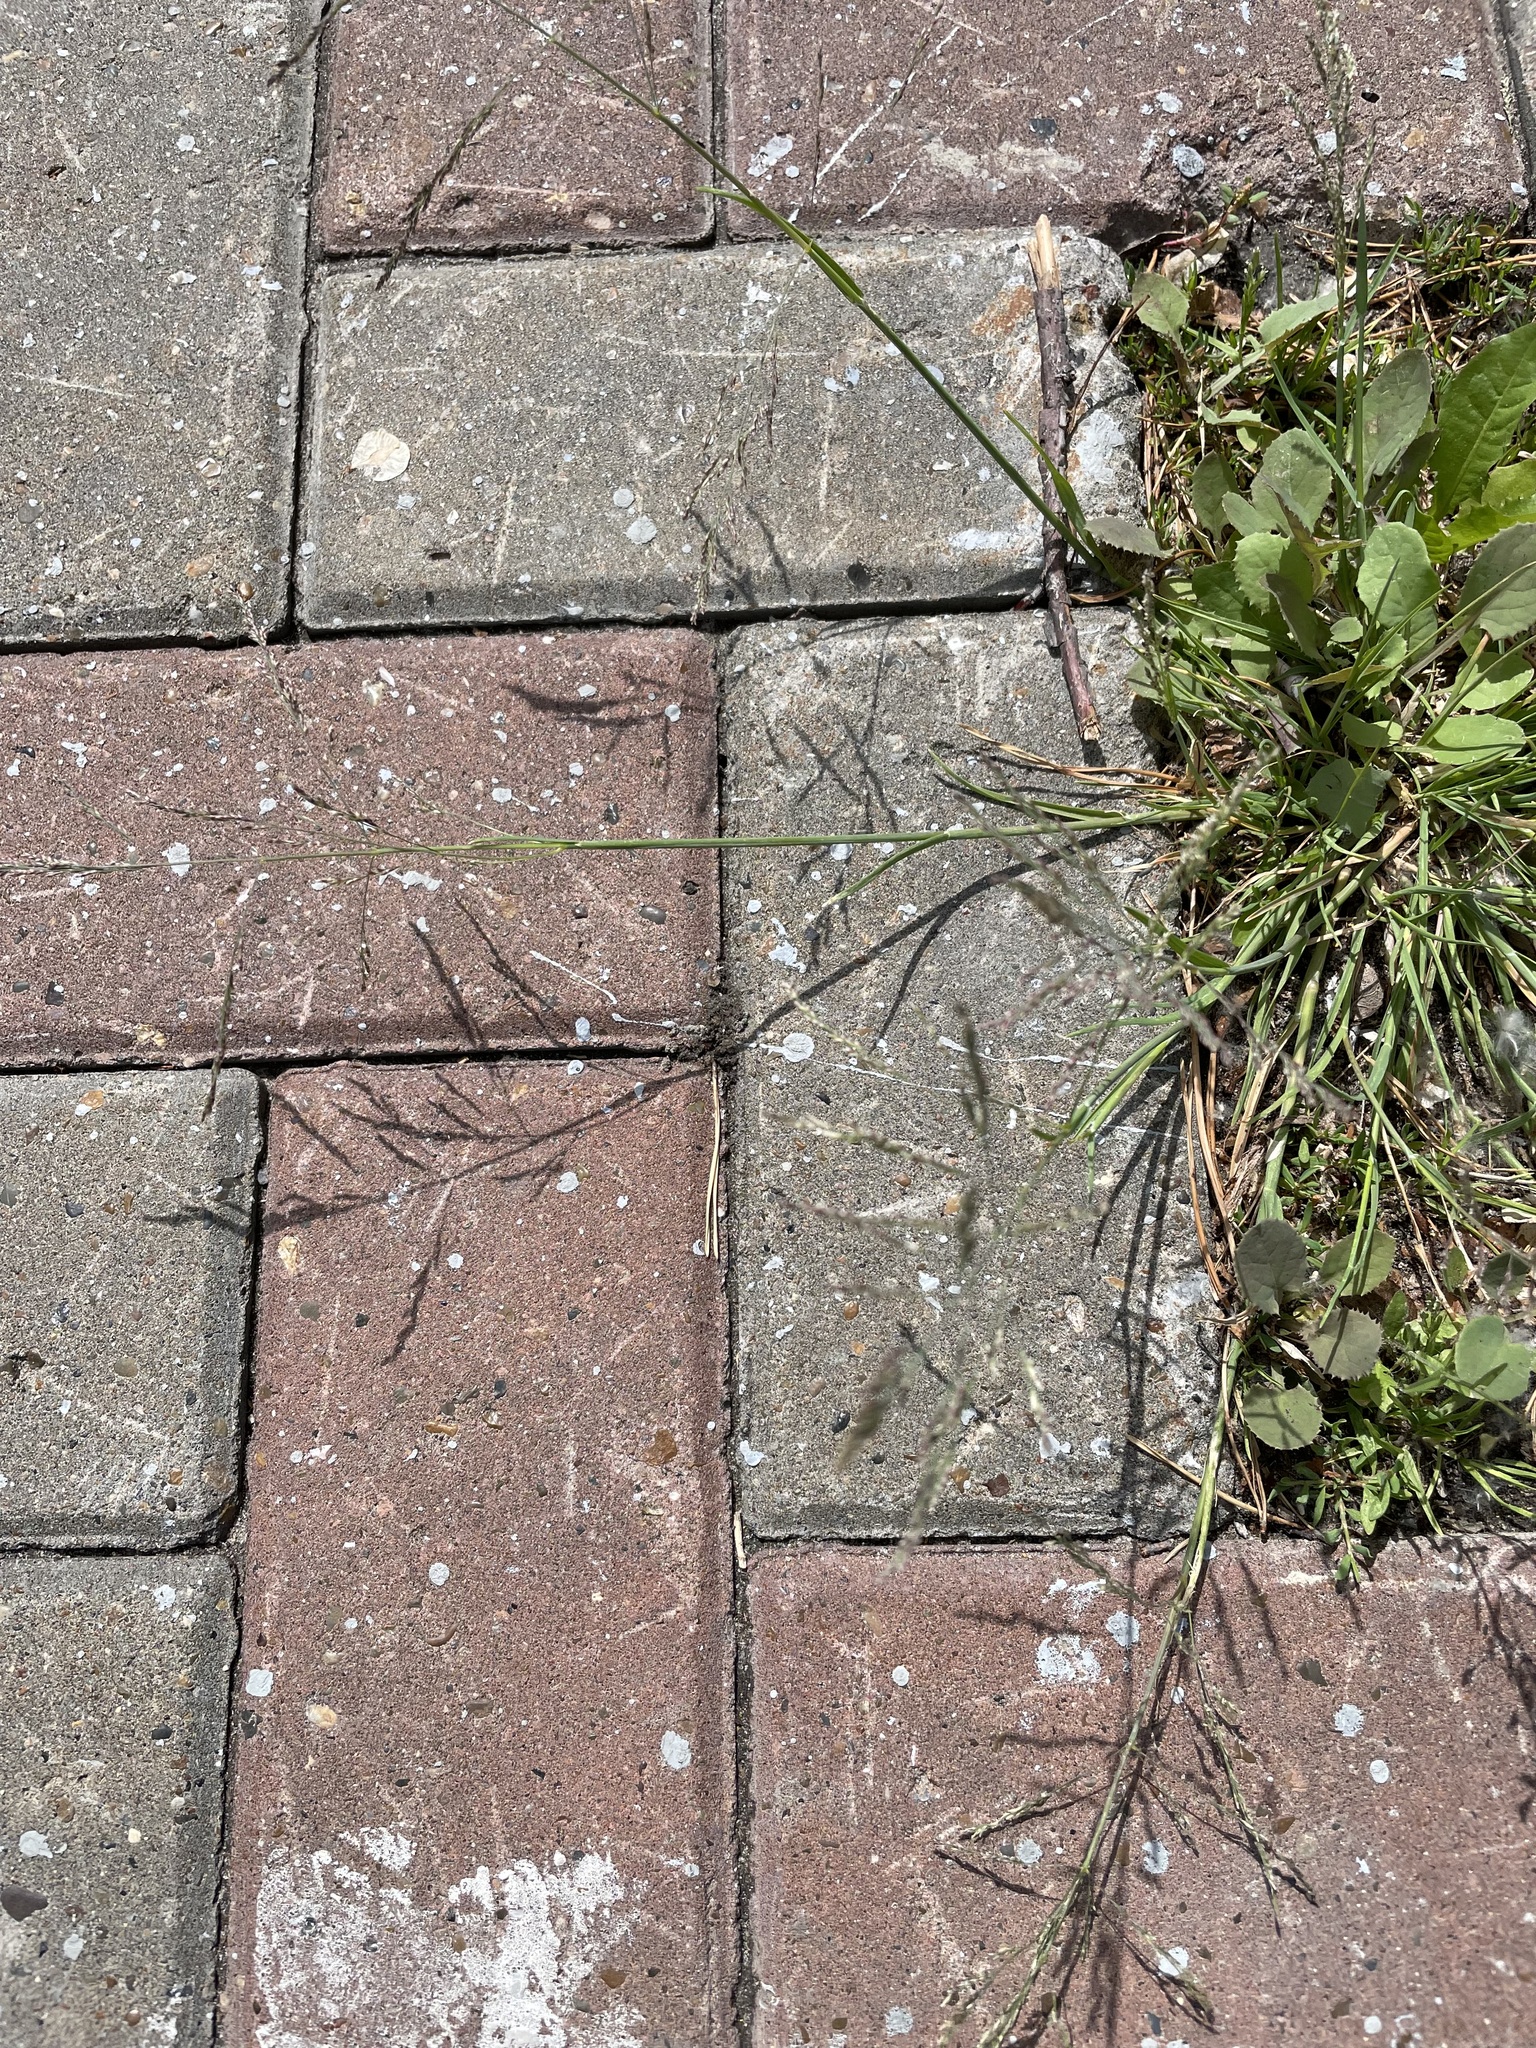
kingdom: Plantae
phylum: Tracheophyta
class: Liliopsida
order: Poales
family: Poaceae
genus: Puccinellia
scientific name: Puccinellia distans
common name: Weeping alkaligrass
